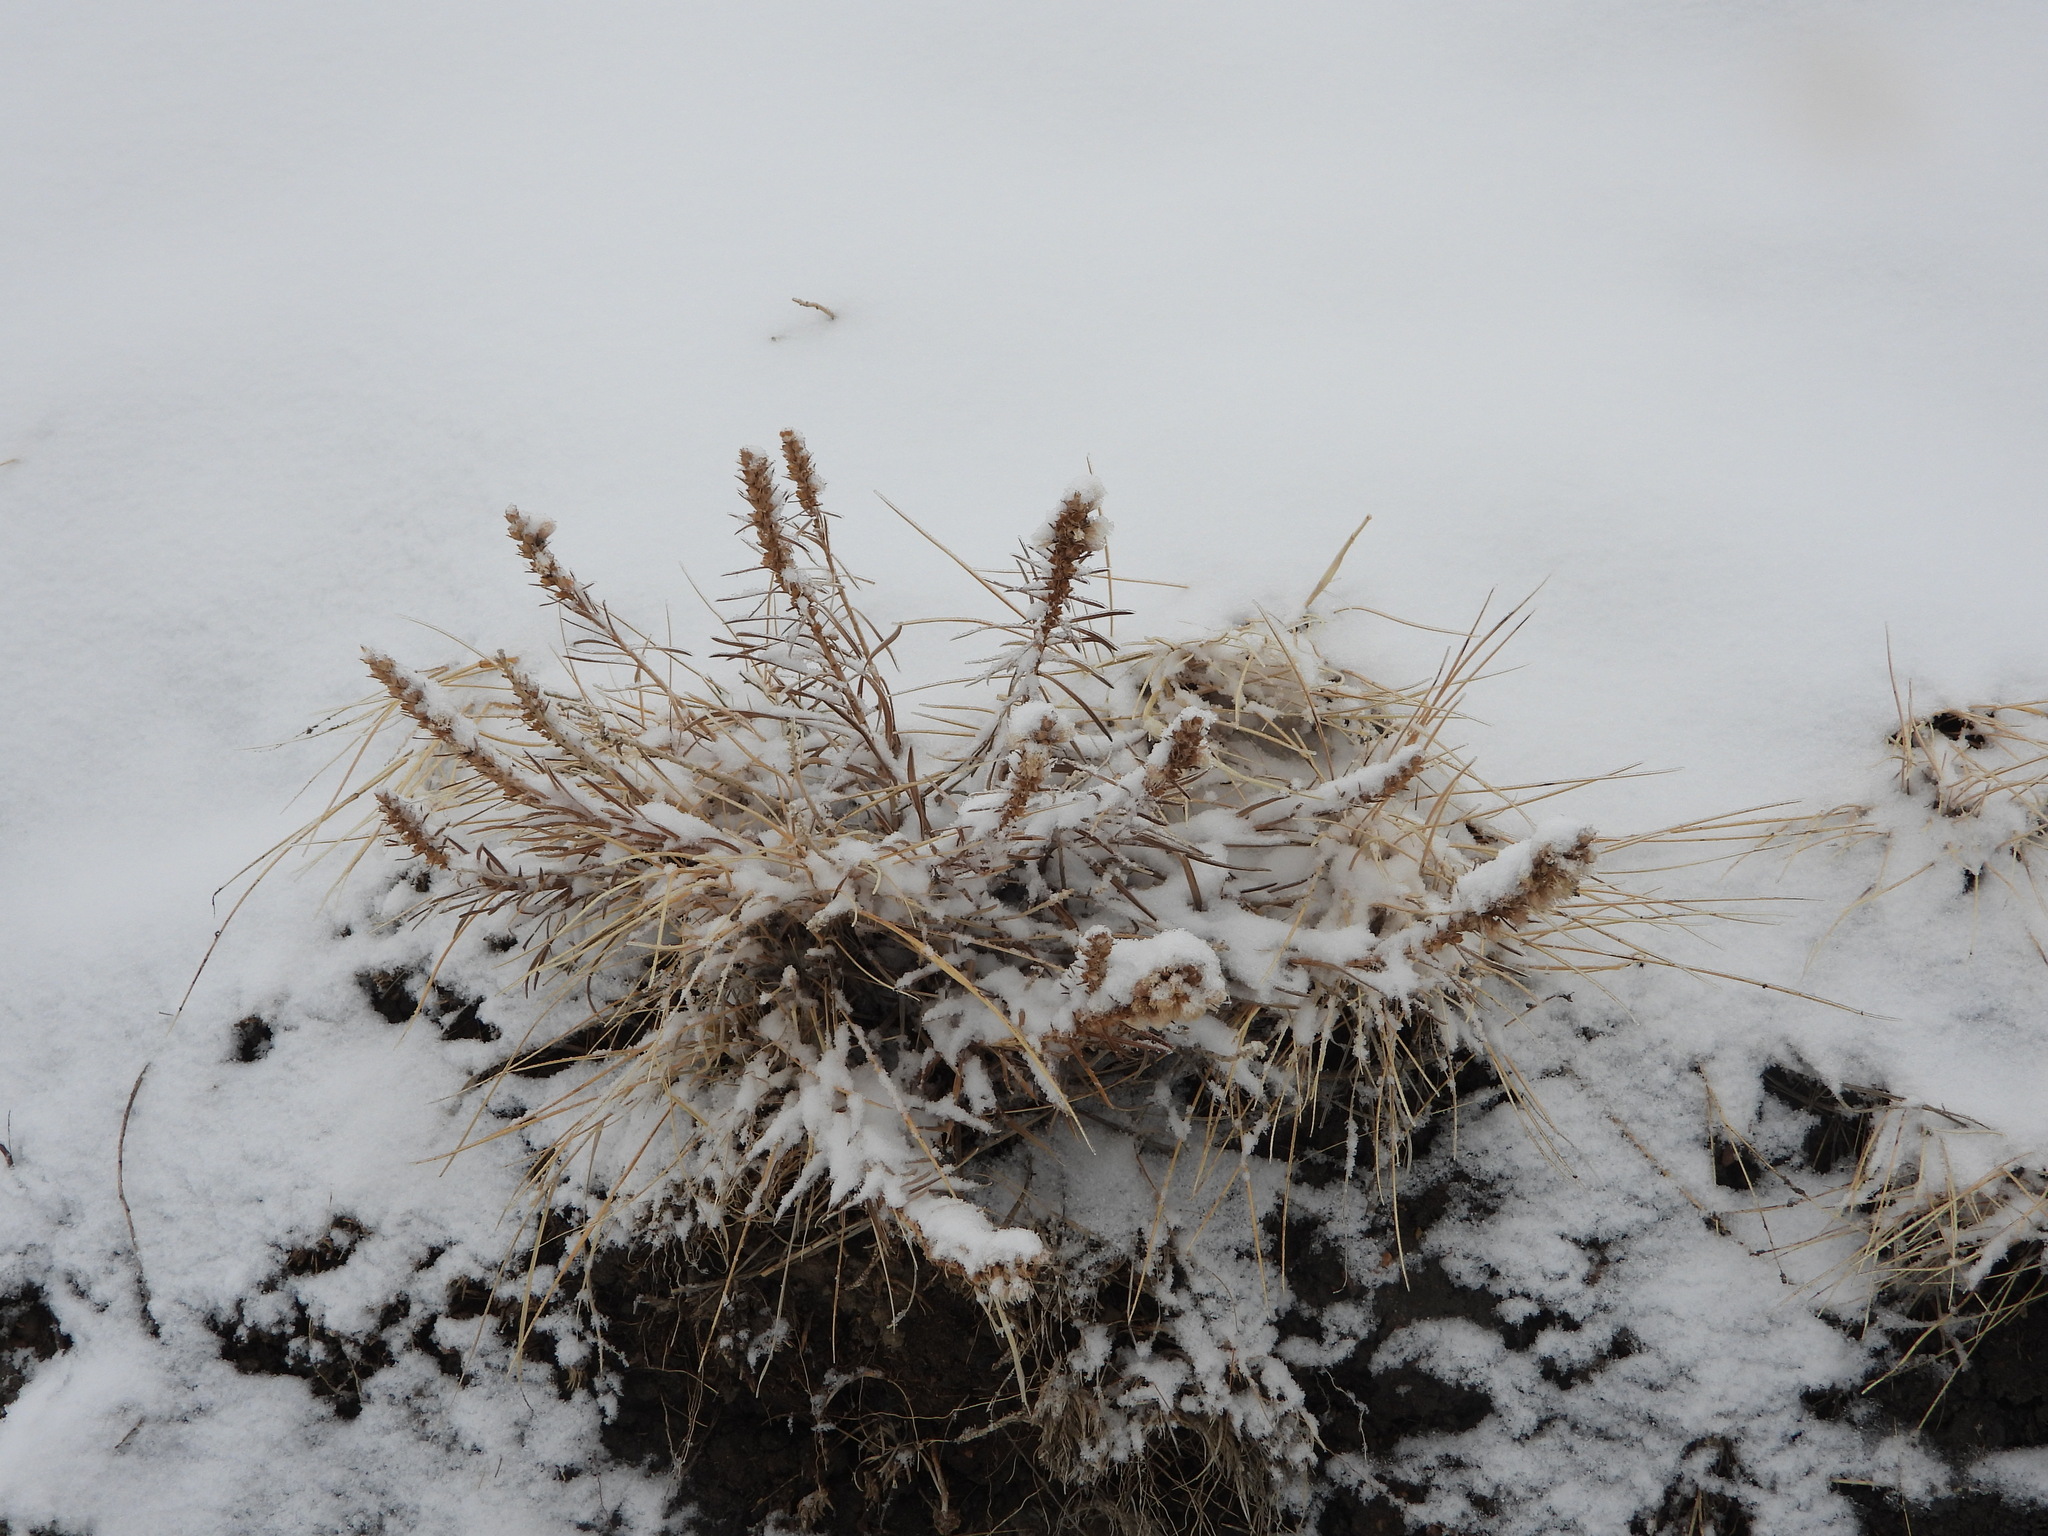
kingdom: Plantae
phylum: Tracheophyta
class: Magnoliopsida
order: Asterales
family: Asteraceae
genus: Liatris
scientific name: Liatris punctata
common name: Dotted gayfeather
